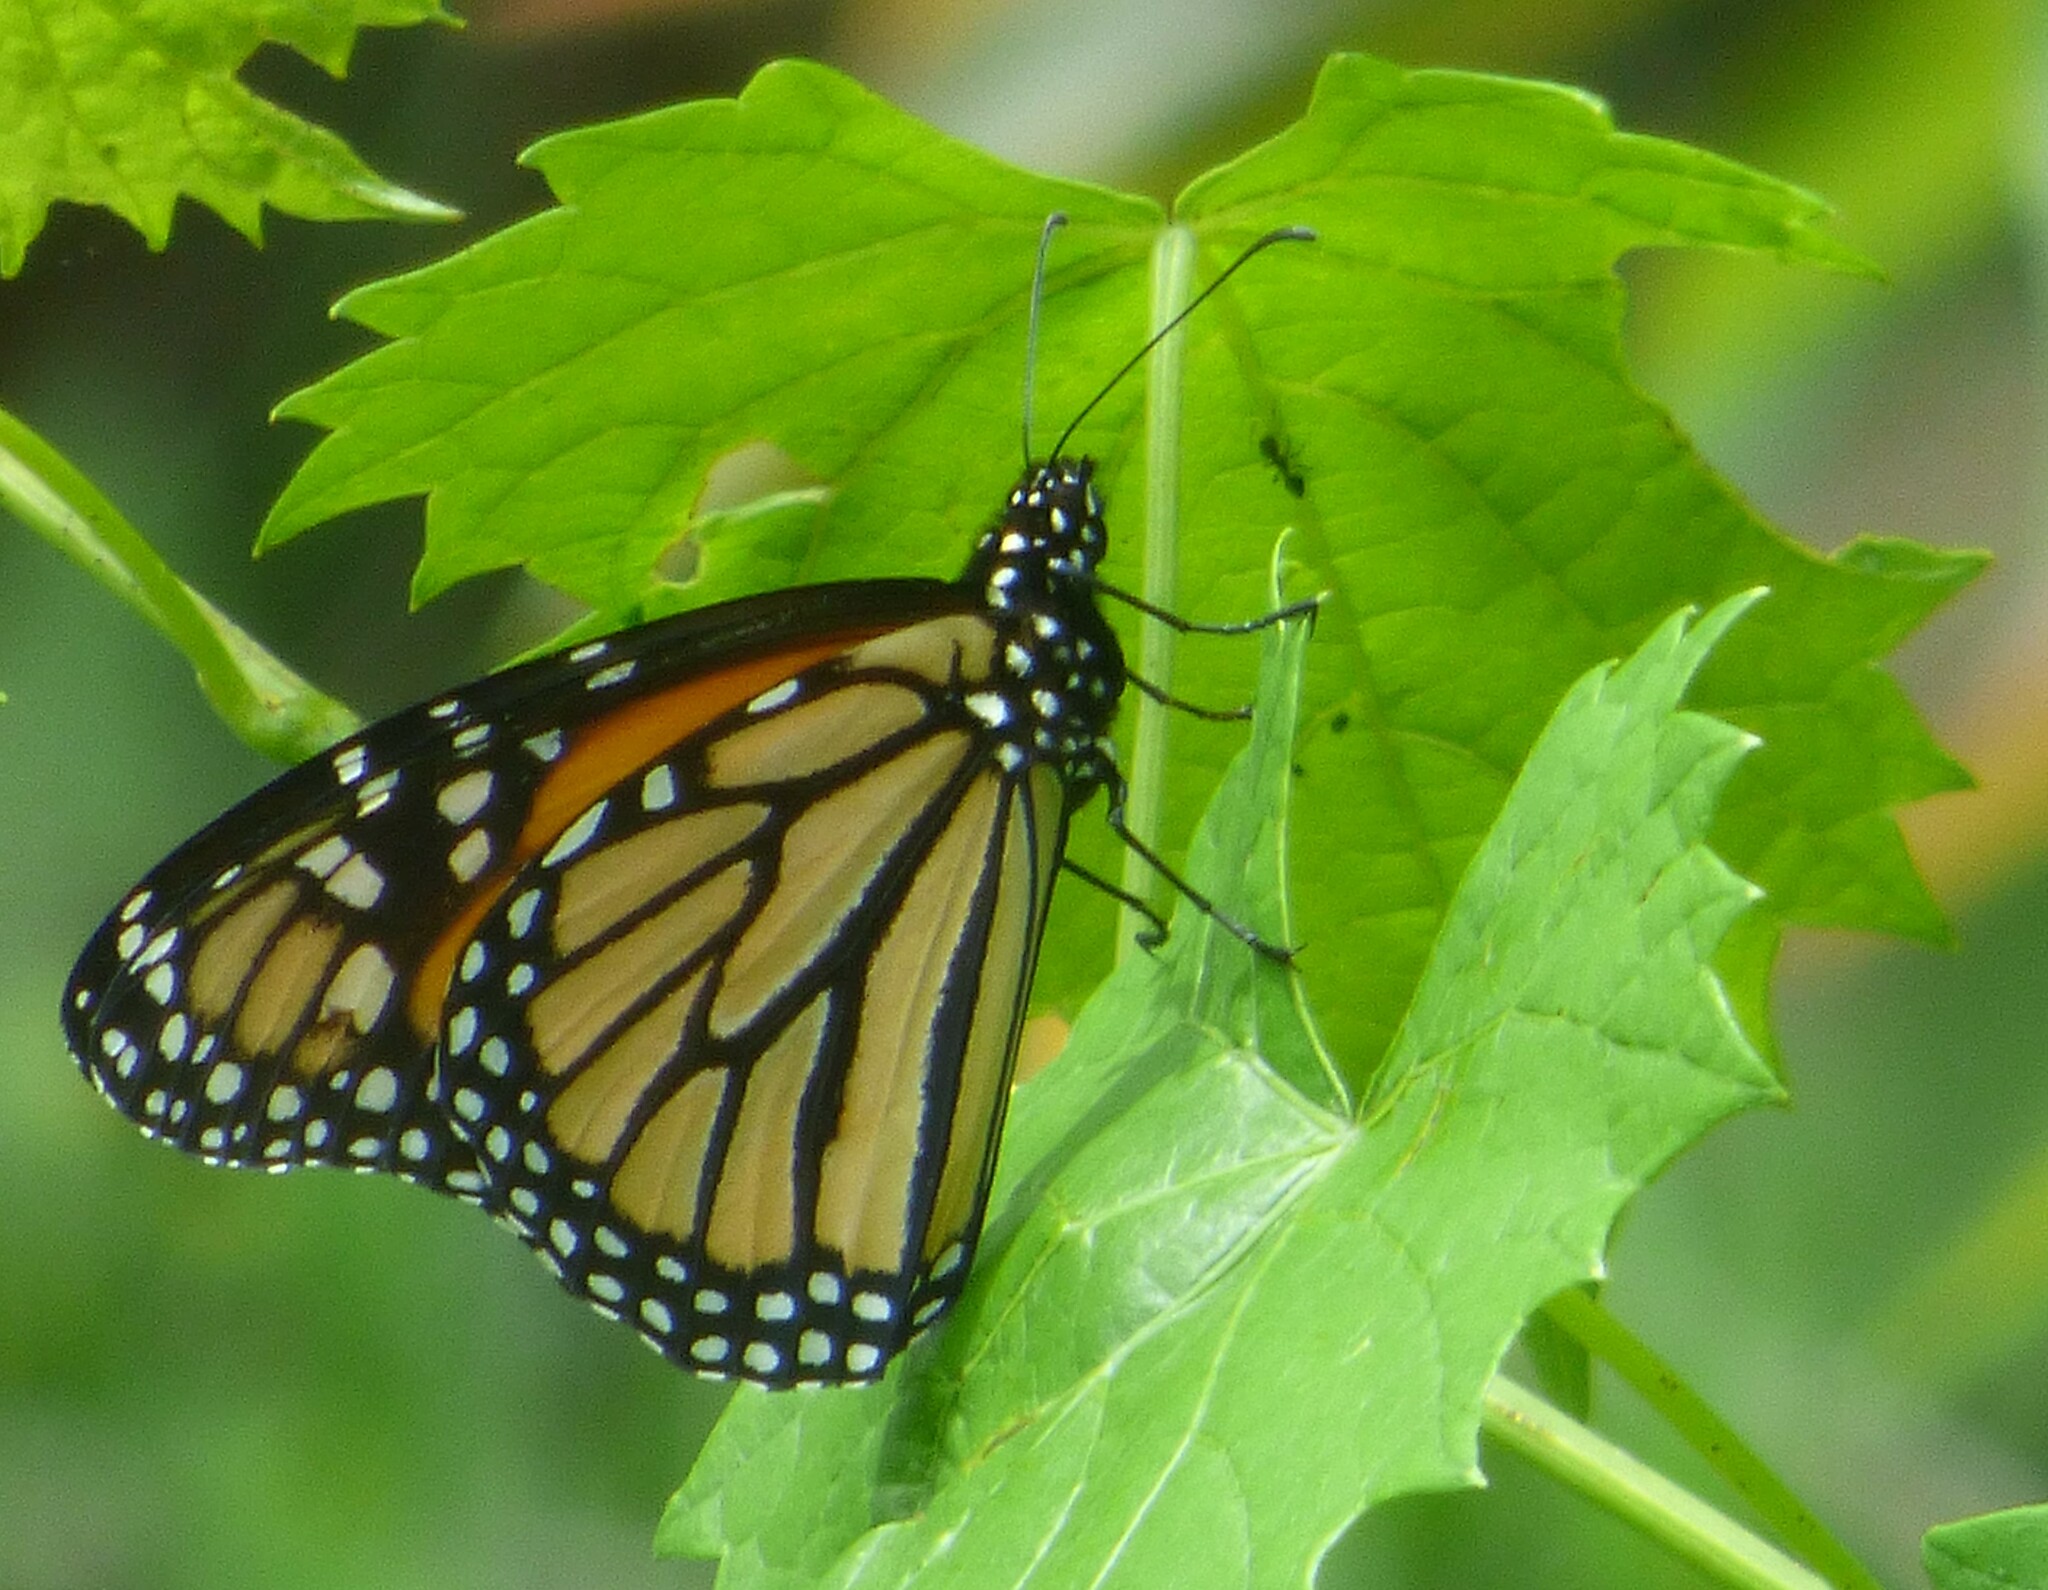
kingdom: Animalia
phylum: Arthropoda
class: Insecta
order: Lepidoptera
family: Nymphalidae
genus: Danaus
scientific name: Danaus plexippus
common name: Monarch
